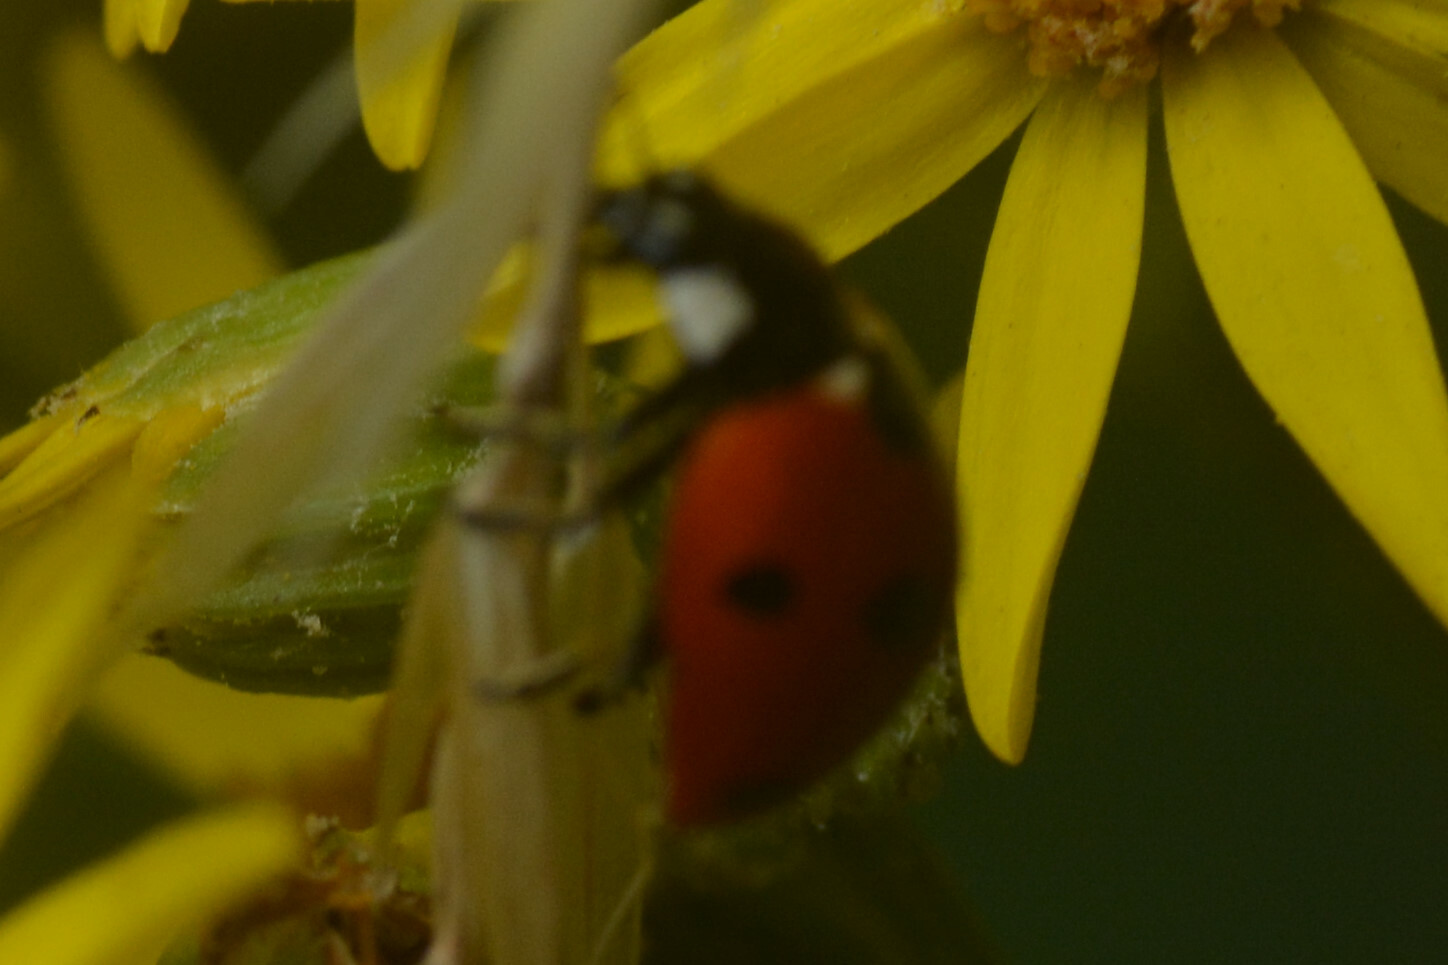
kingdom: Animalia
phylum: Arthropoda
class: Insecta
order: Coleoptera
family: Coccinellidae
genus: Coccinella
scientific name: Coccinella septempunctata
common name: Sevenspotted lady beetle
